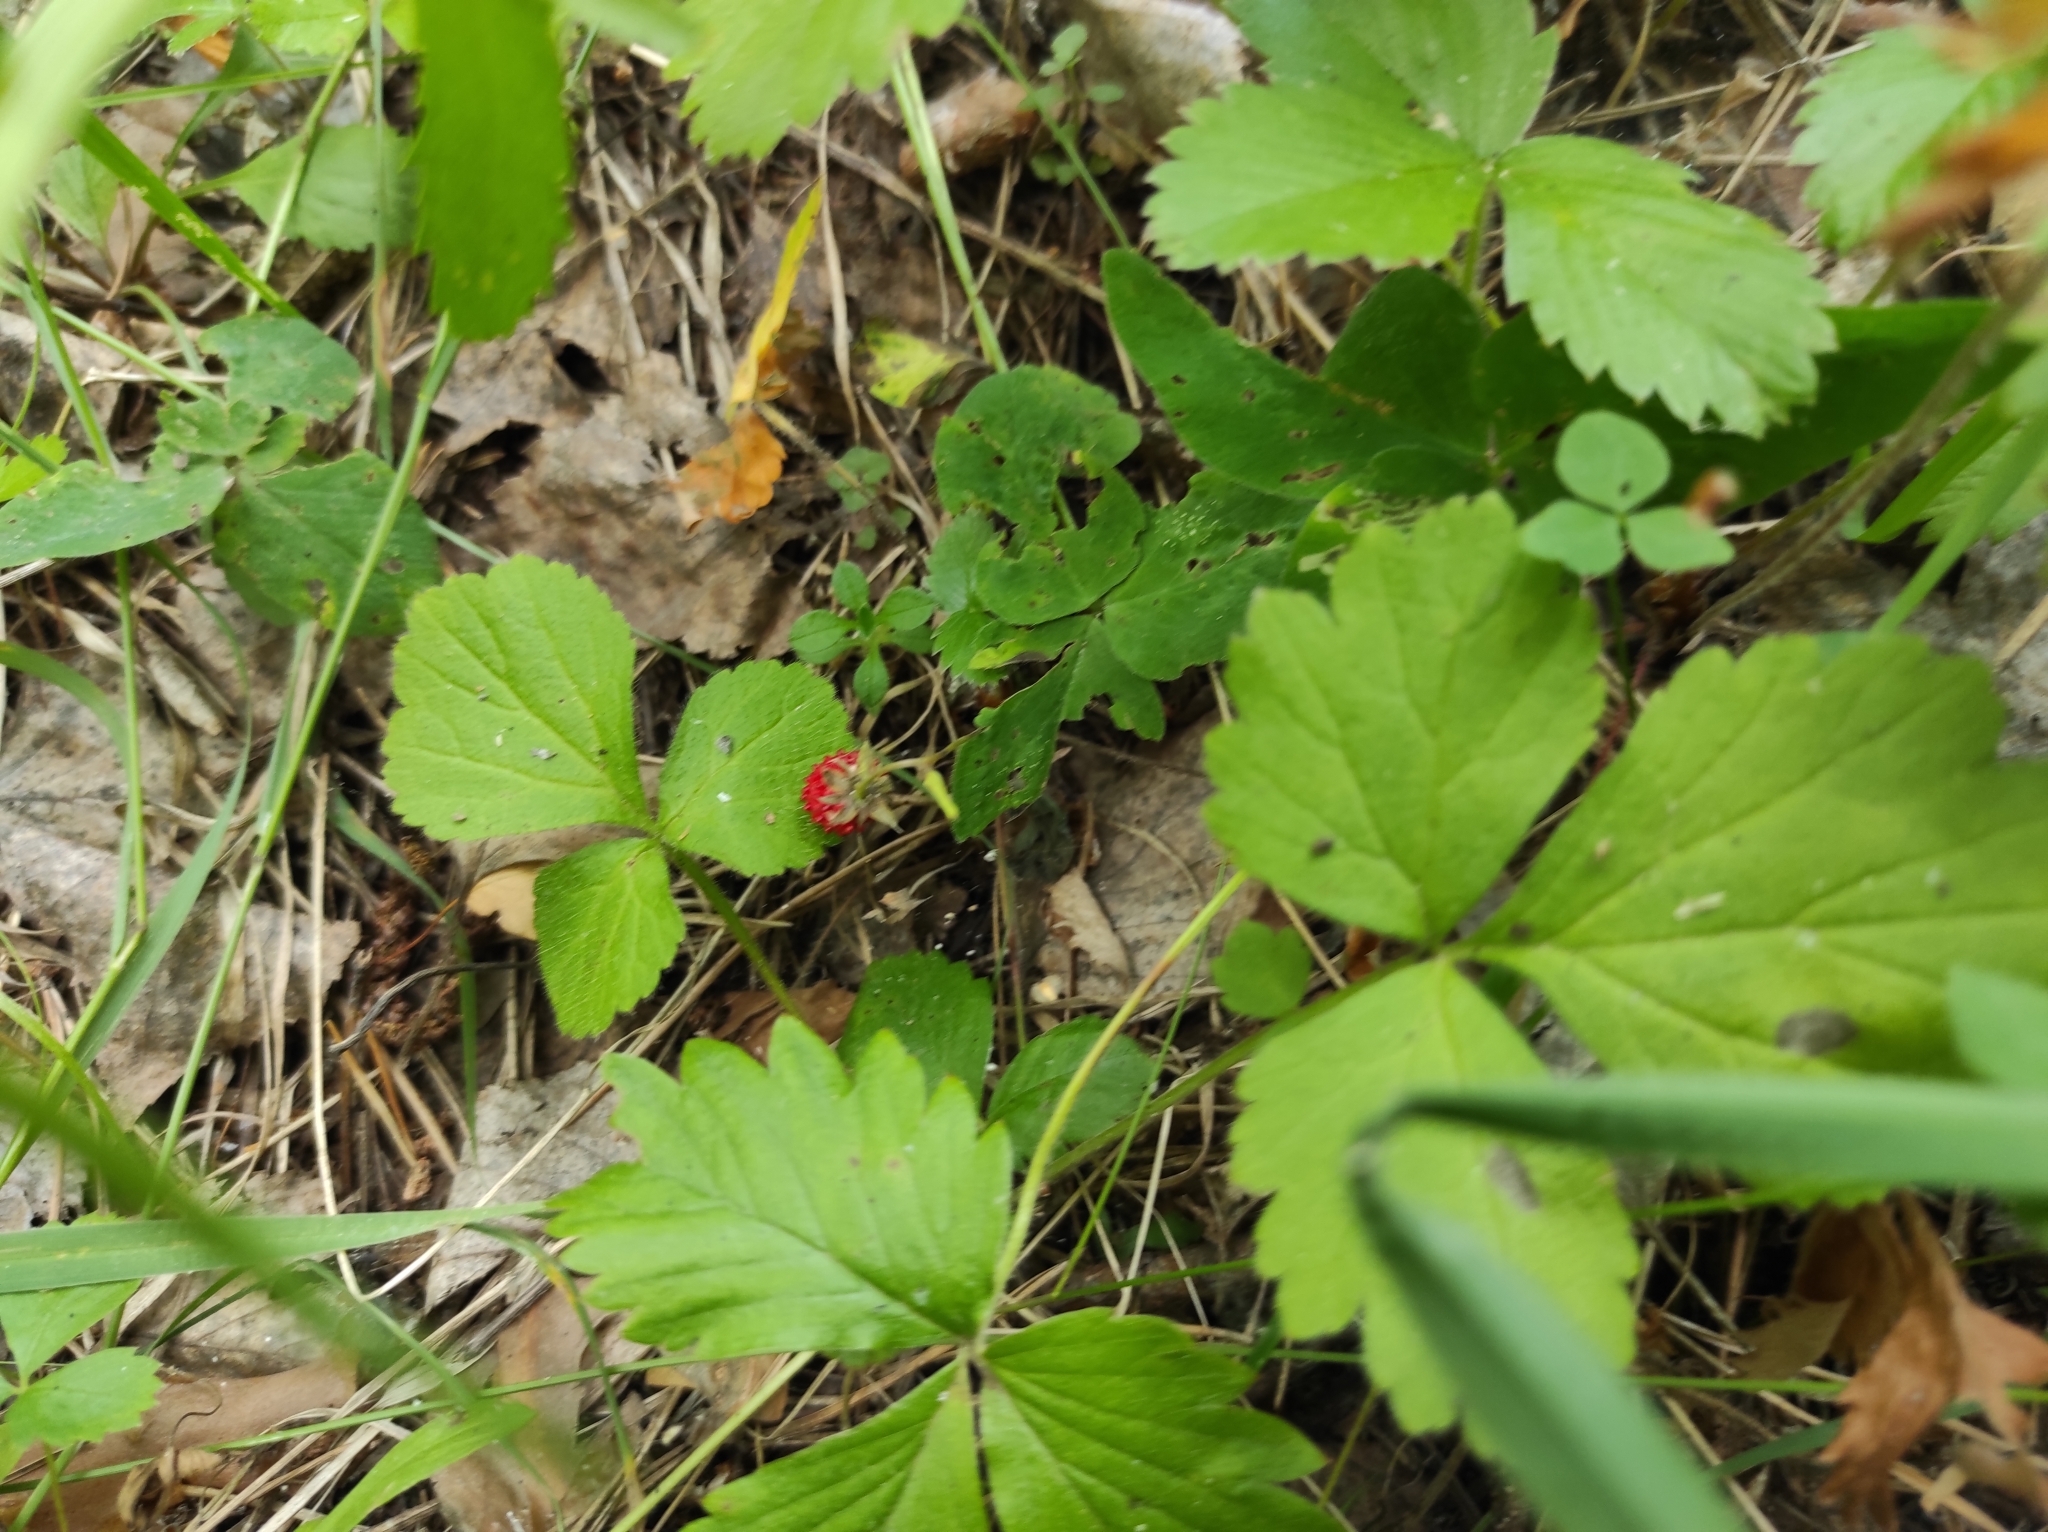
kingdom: Plantae
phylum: Tracheophyta
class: Magnoliopsida
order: Rosales
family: Rosaceae
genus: Fragaria
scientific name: Fragaria vesca
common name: Wild strawberry
